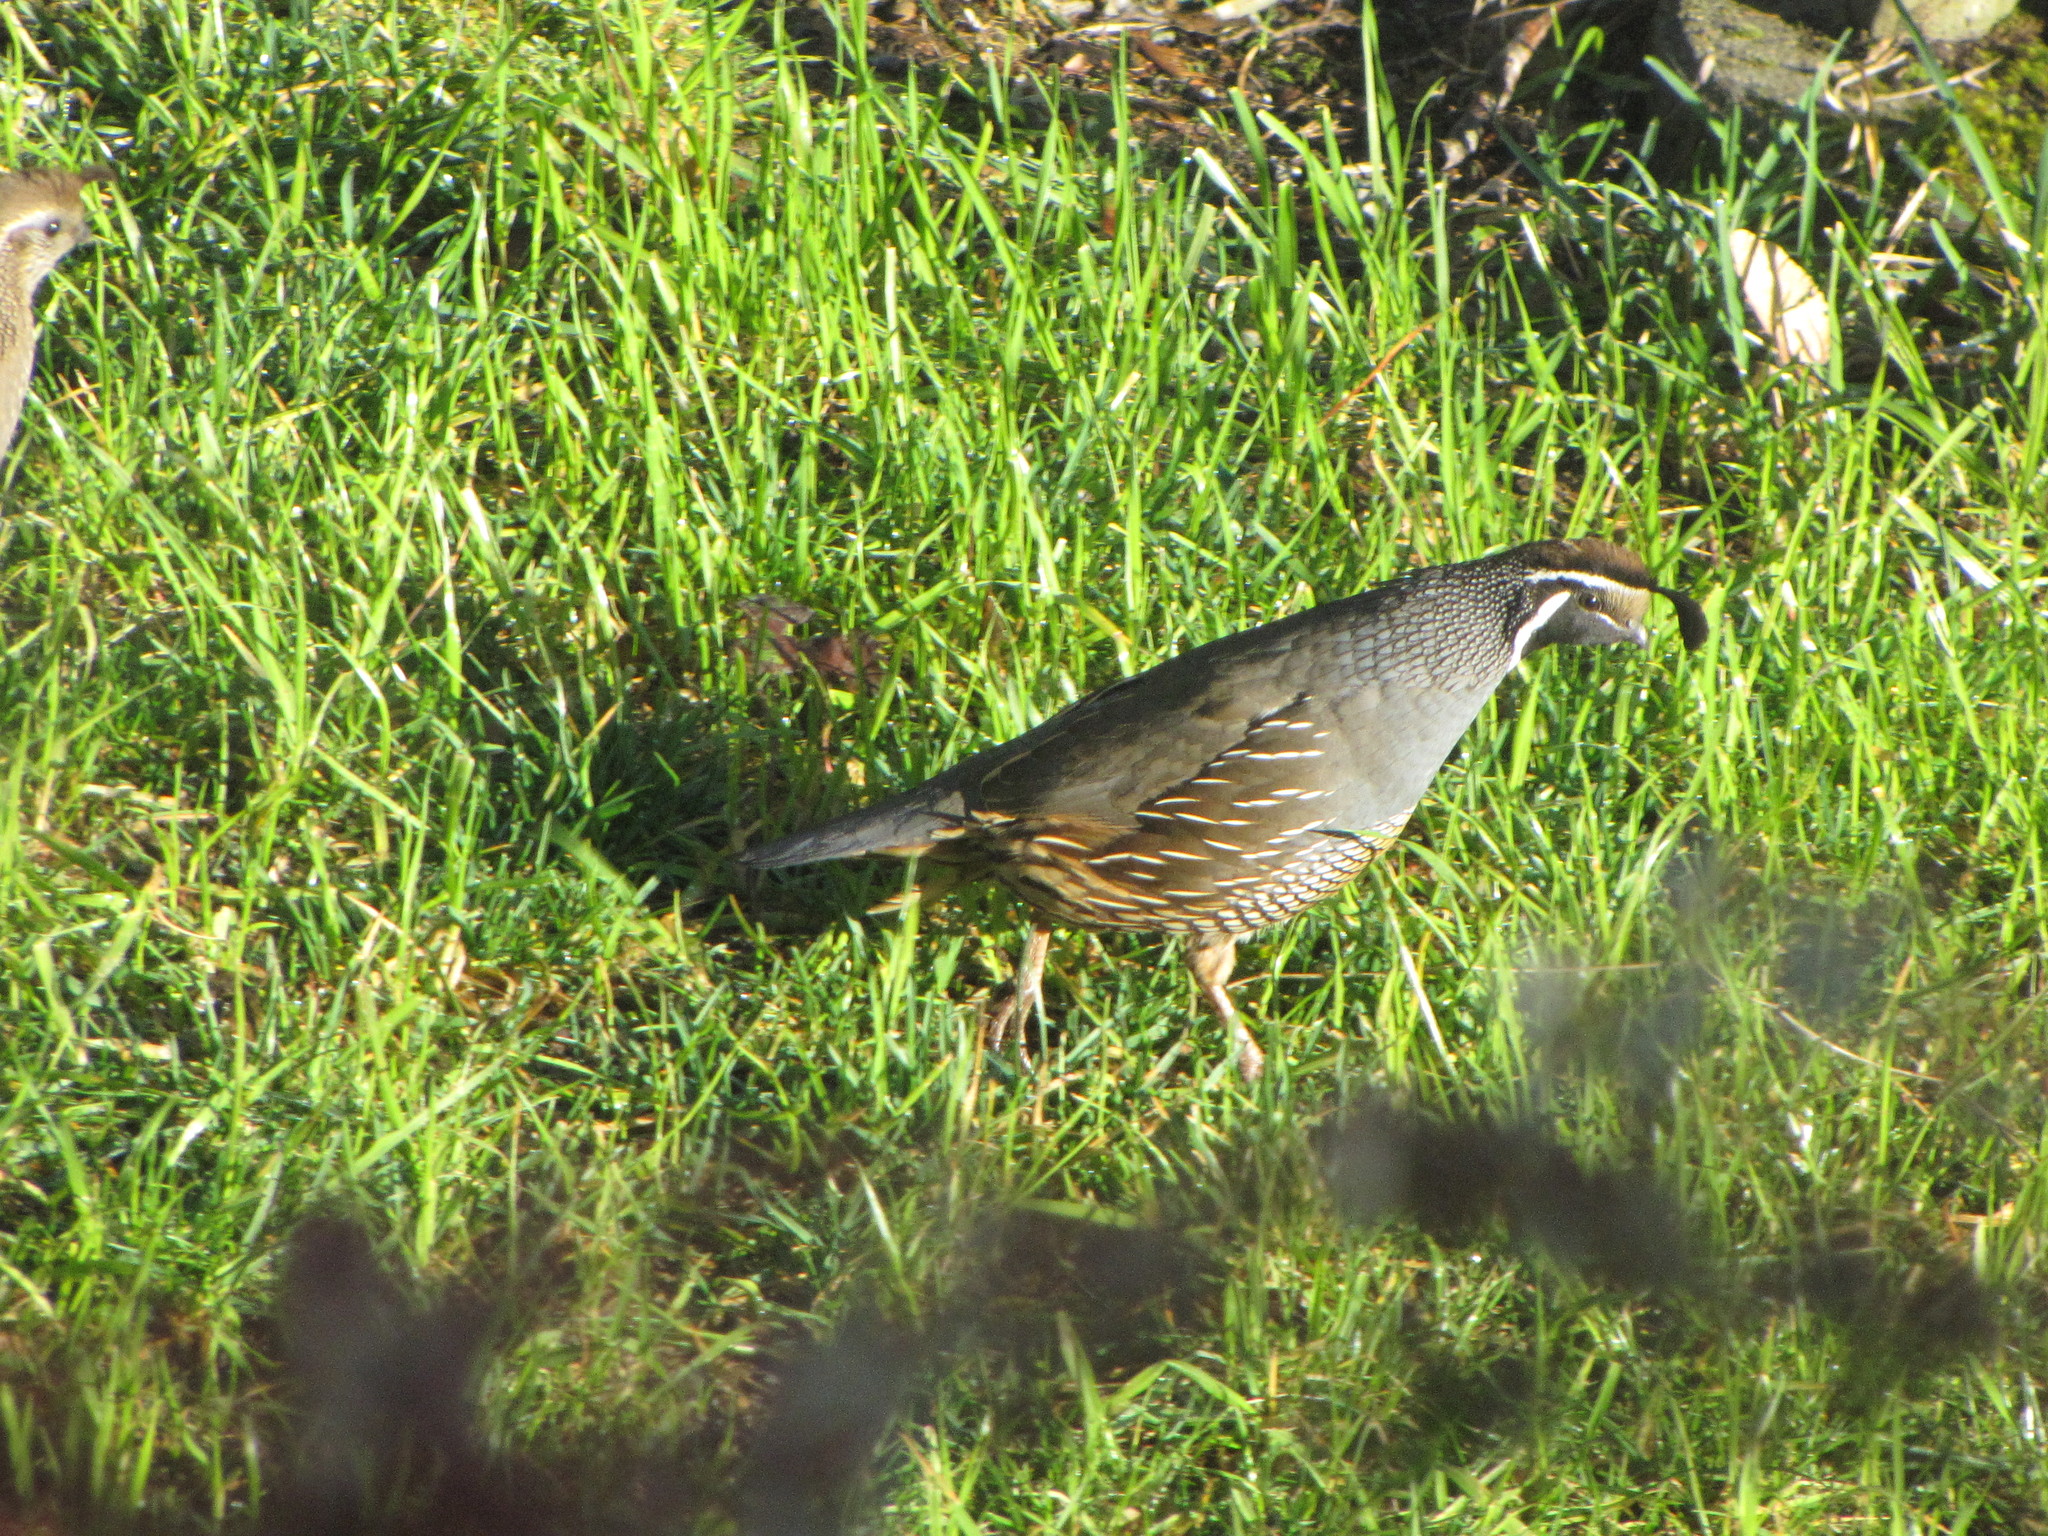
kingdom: Animalia
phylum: Chordata
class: Aves
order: Galliformes
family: Odontophoridae
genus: Callipepla
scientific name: Callipepla californica
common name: California quail
